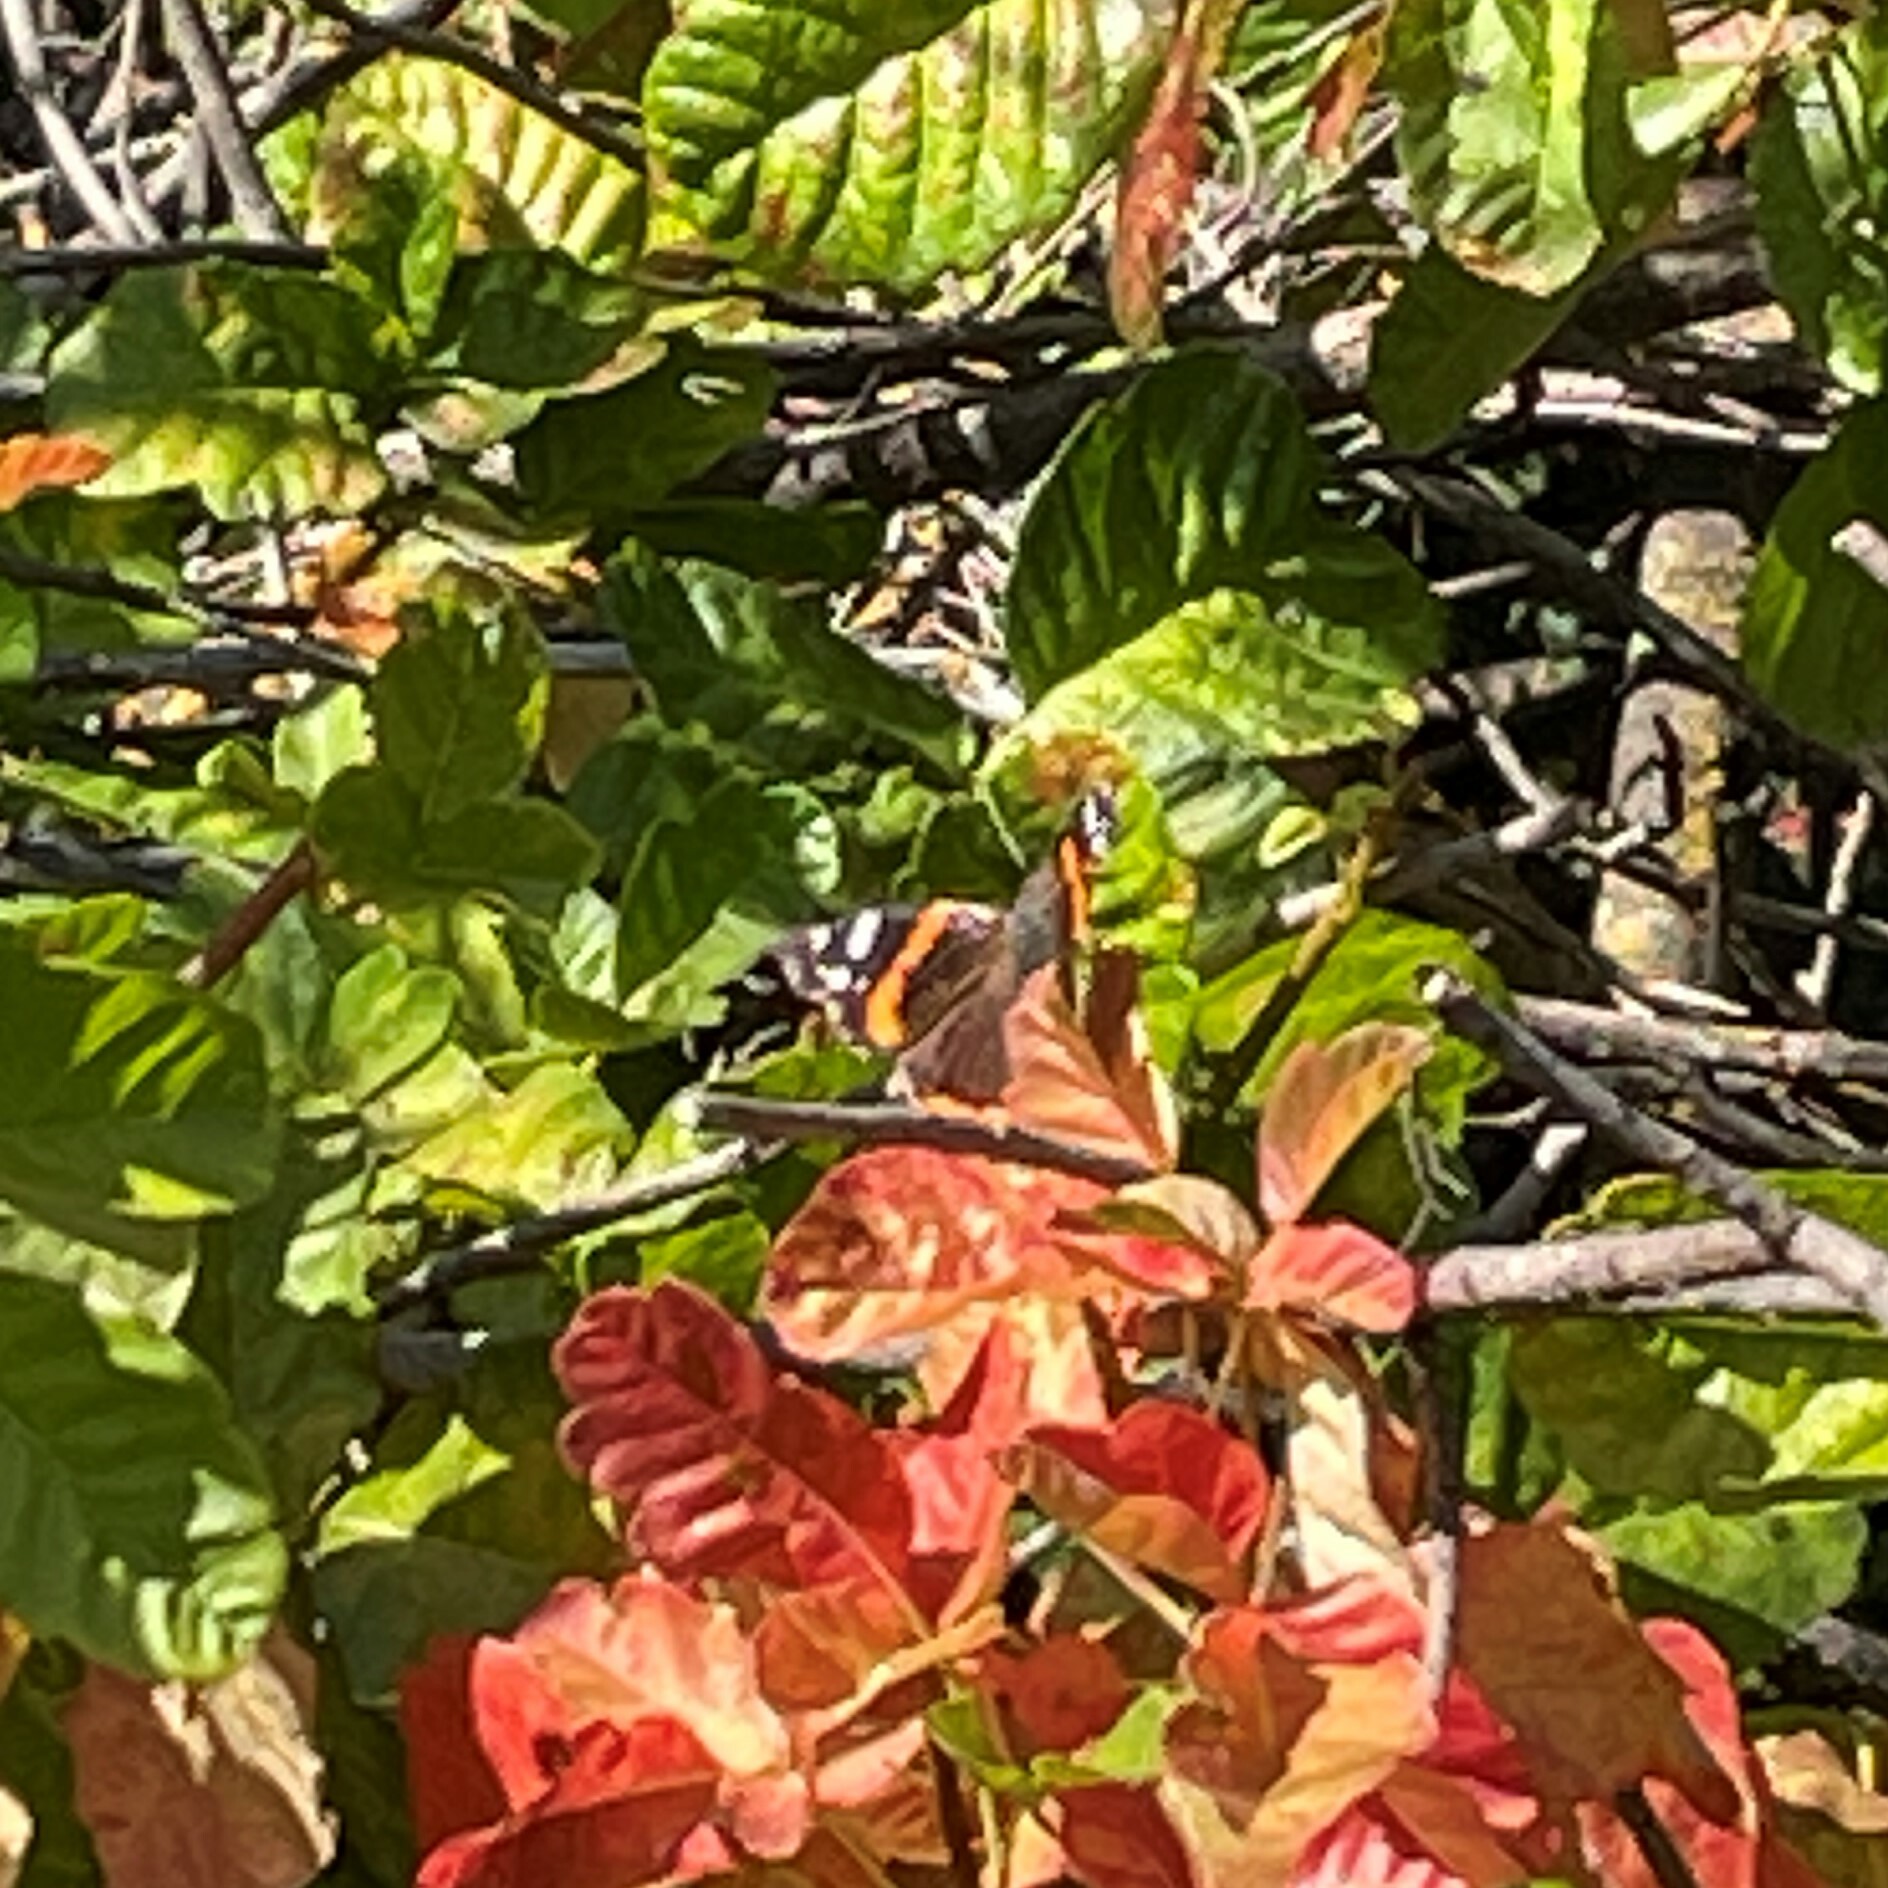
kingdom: Animalia
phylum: Arthropoda
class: Insecta
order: Lepidoptera
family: Nymphalidae
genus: Vanessa
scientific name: Vanessa atalanta
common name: Red admiral
